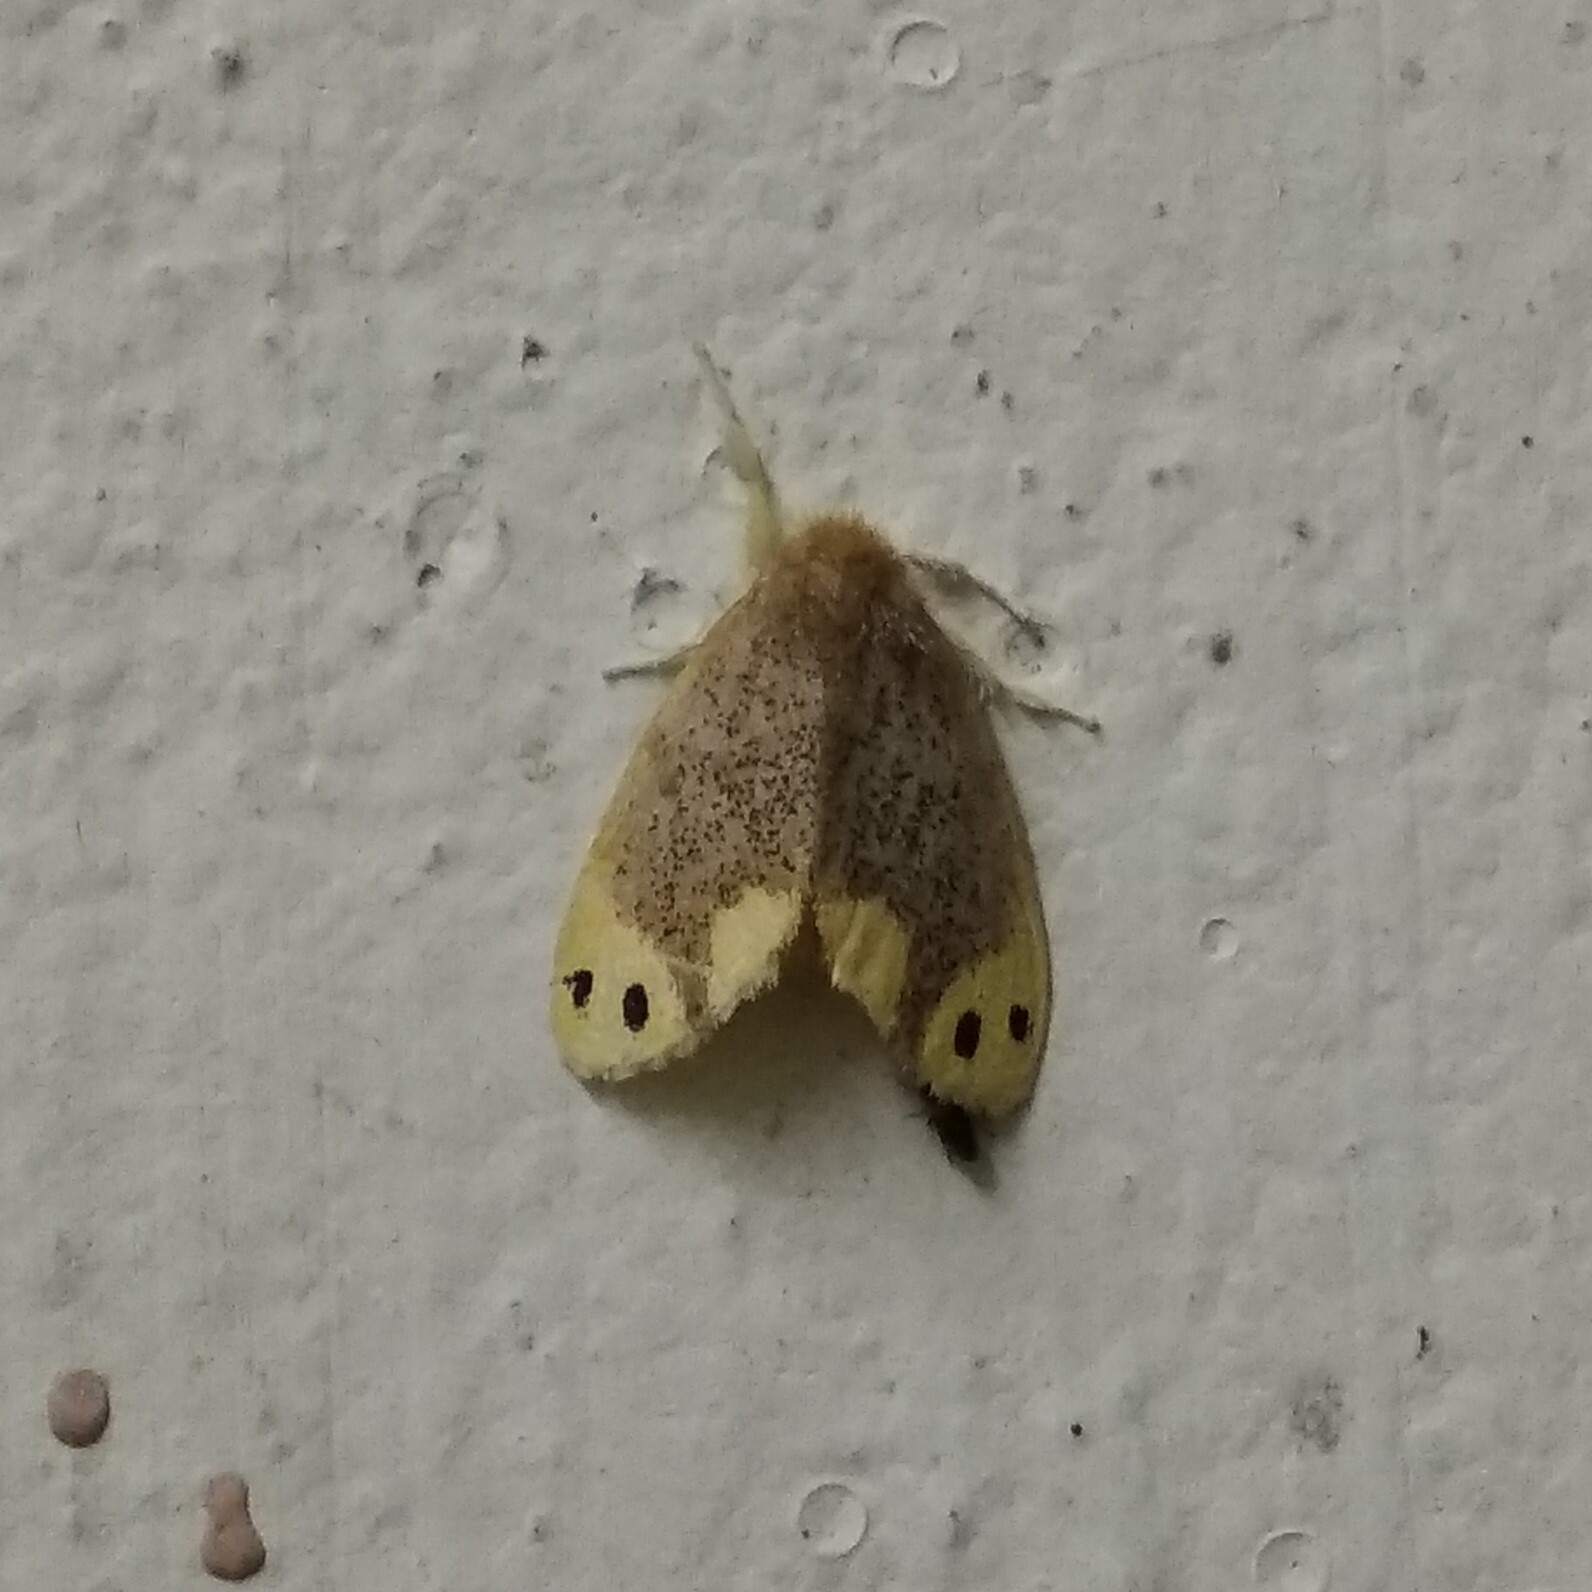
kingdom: Animalia
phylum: Arthropoda
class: Insecta
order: Lepidoptera
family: Erebidae
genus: Arna
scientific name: Arna bipunctapex
